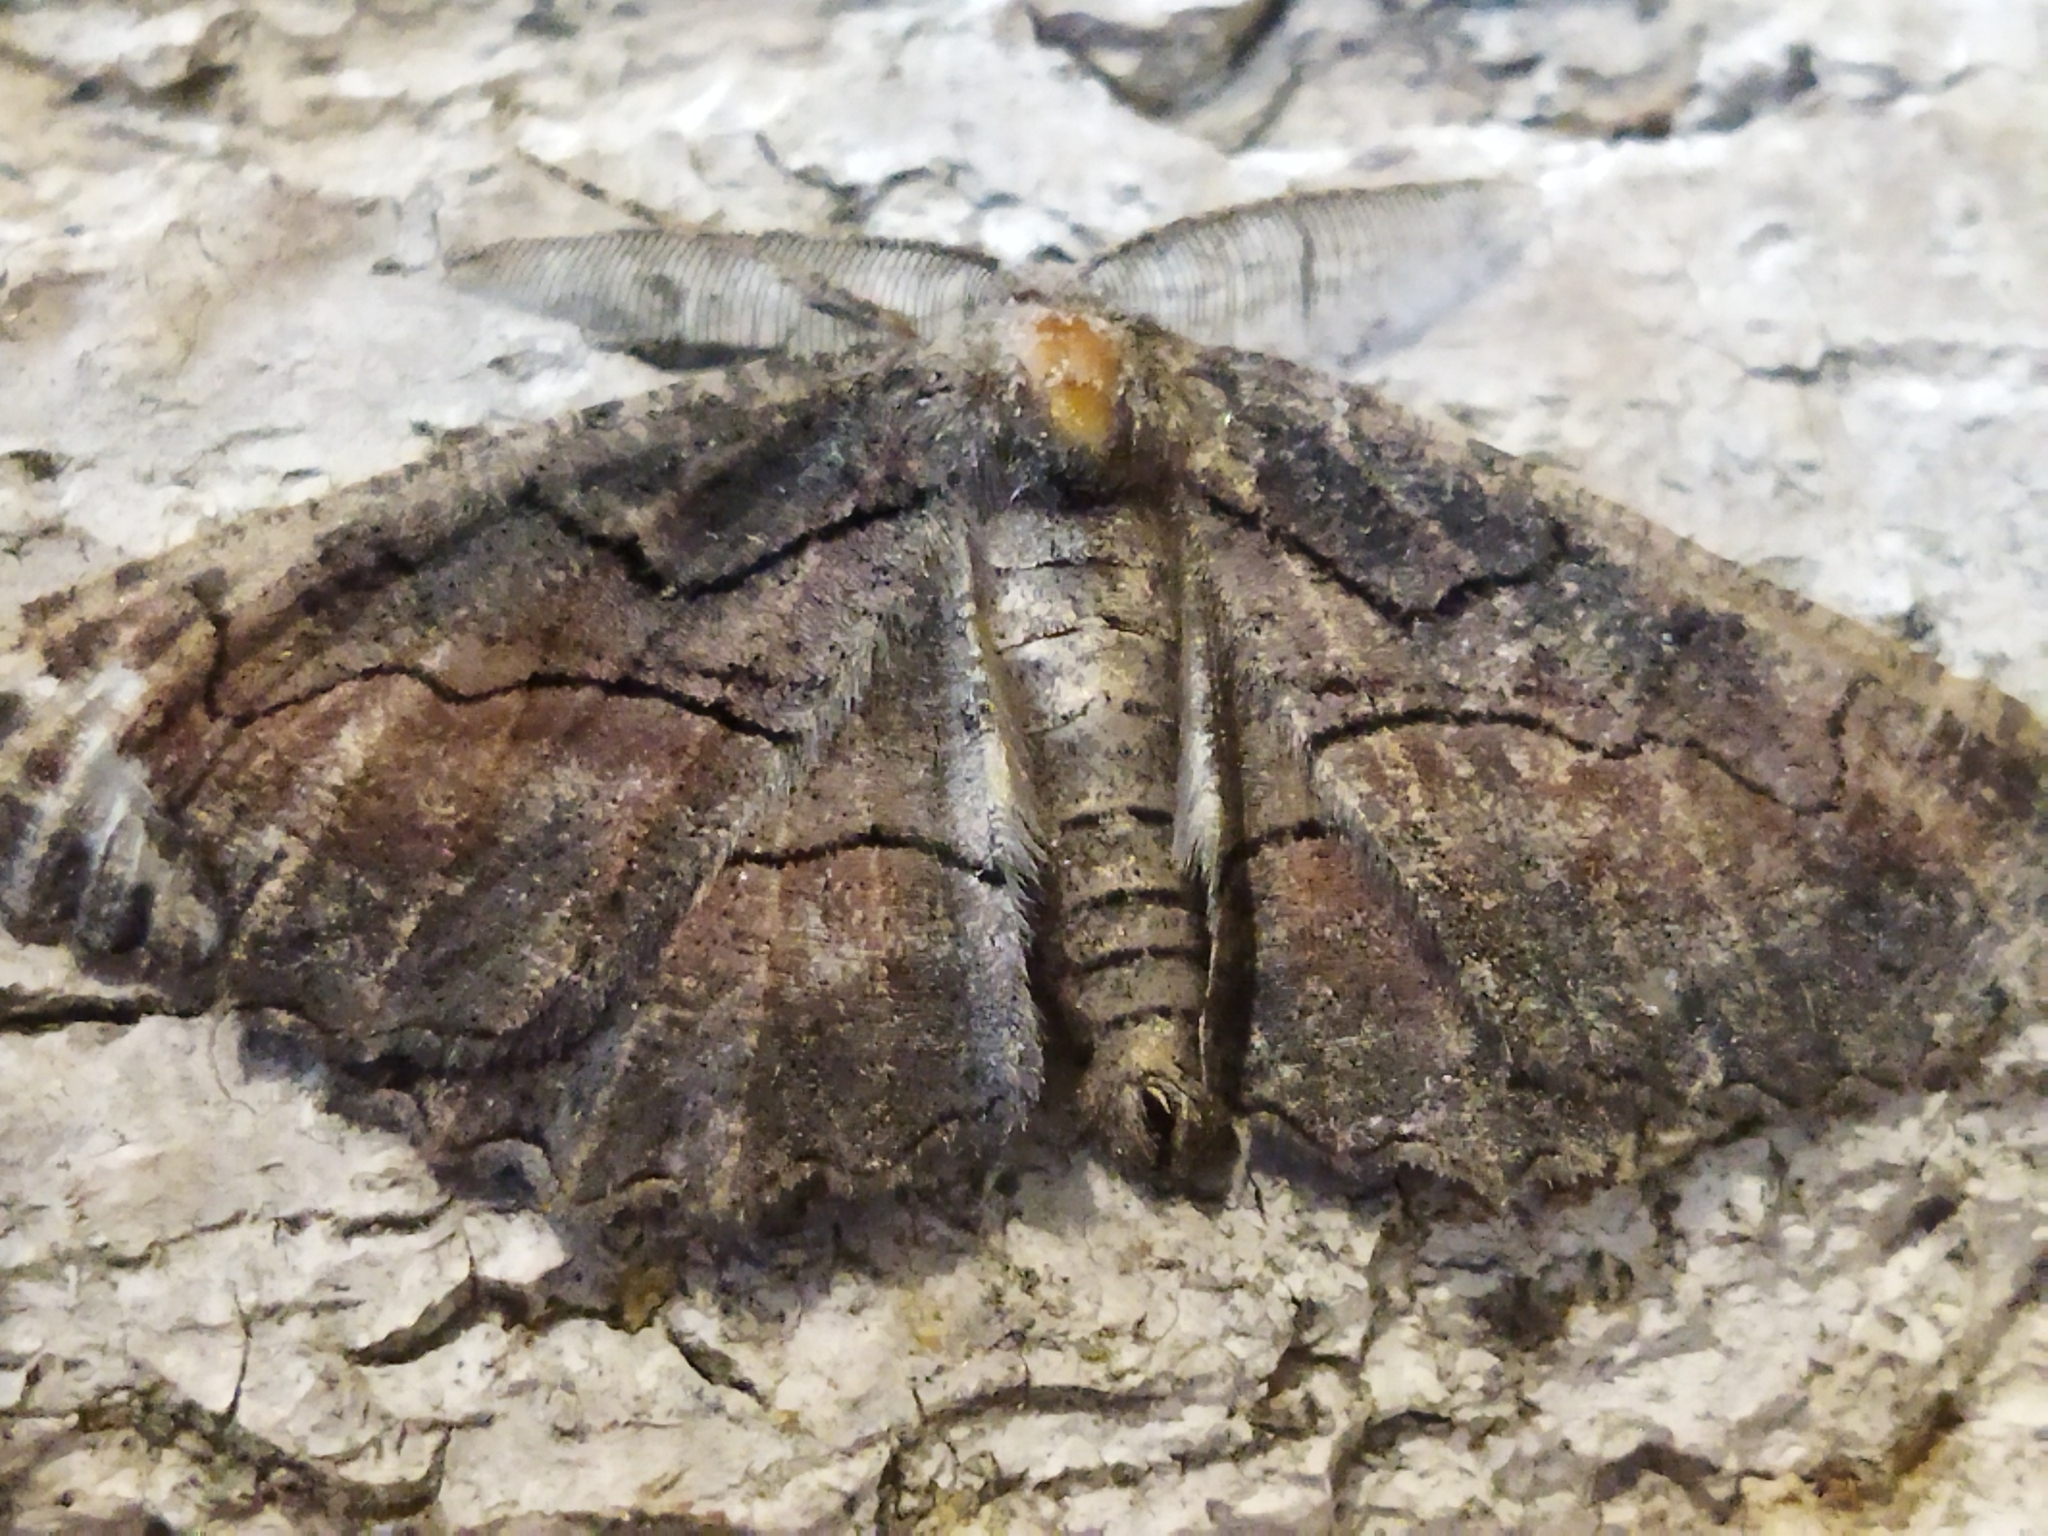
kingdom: Animalia
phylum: Arthropoda
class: Insecta
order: Lepidoptera
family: Geometridae
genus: Nychiodes
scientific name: Nychiodes waltheri
